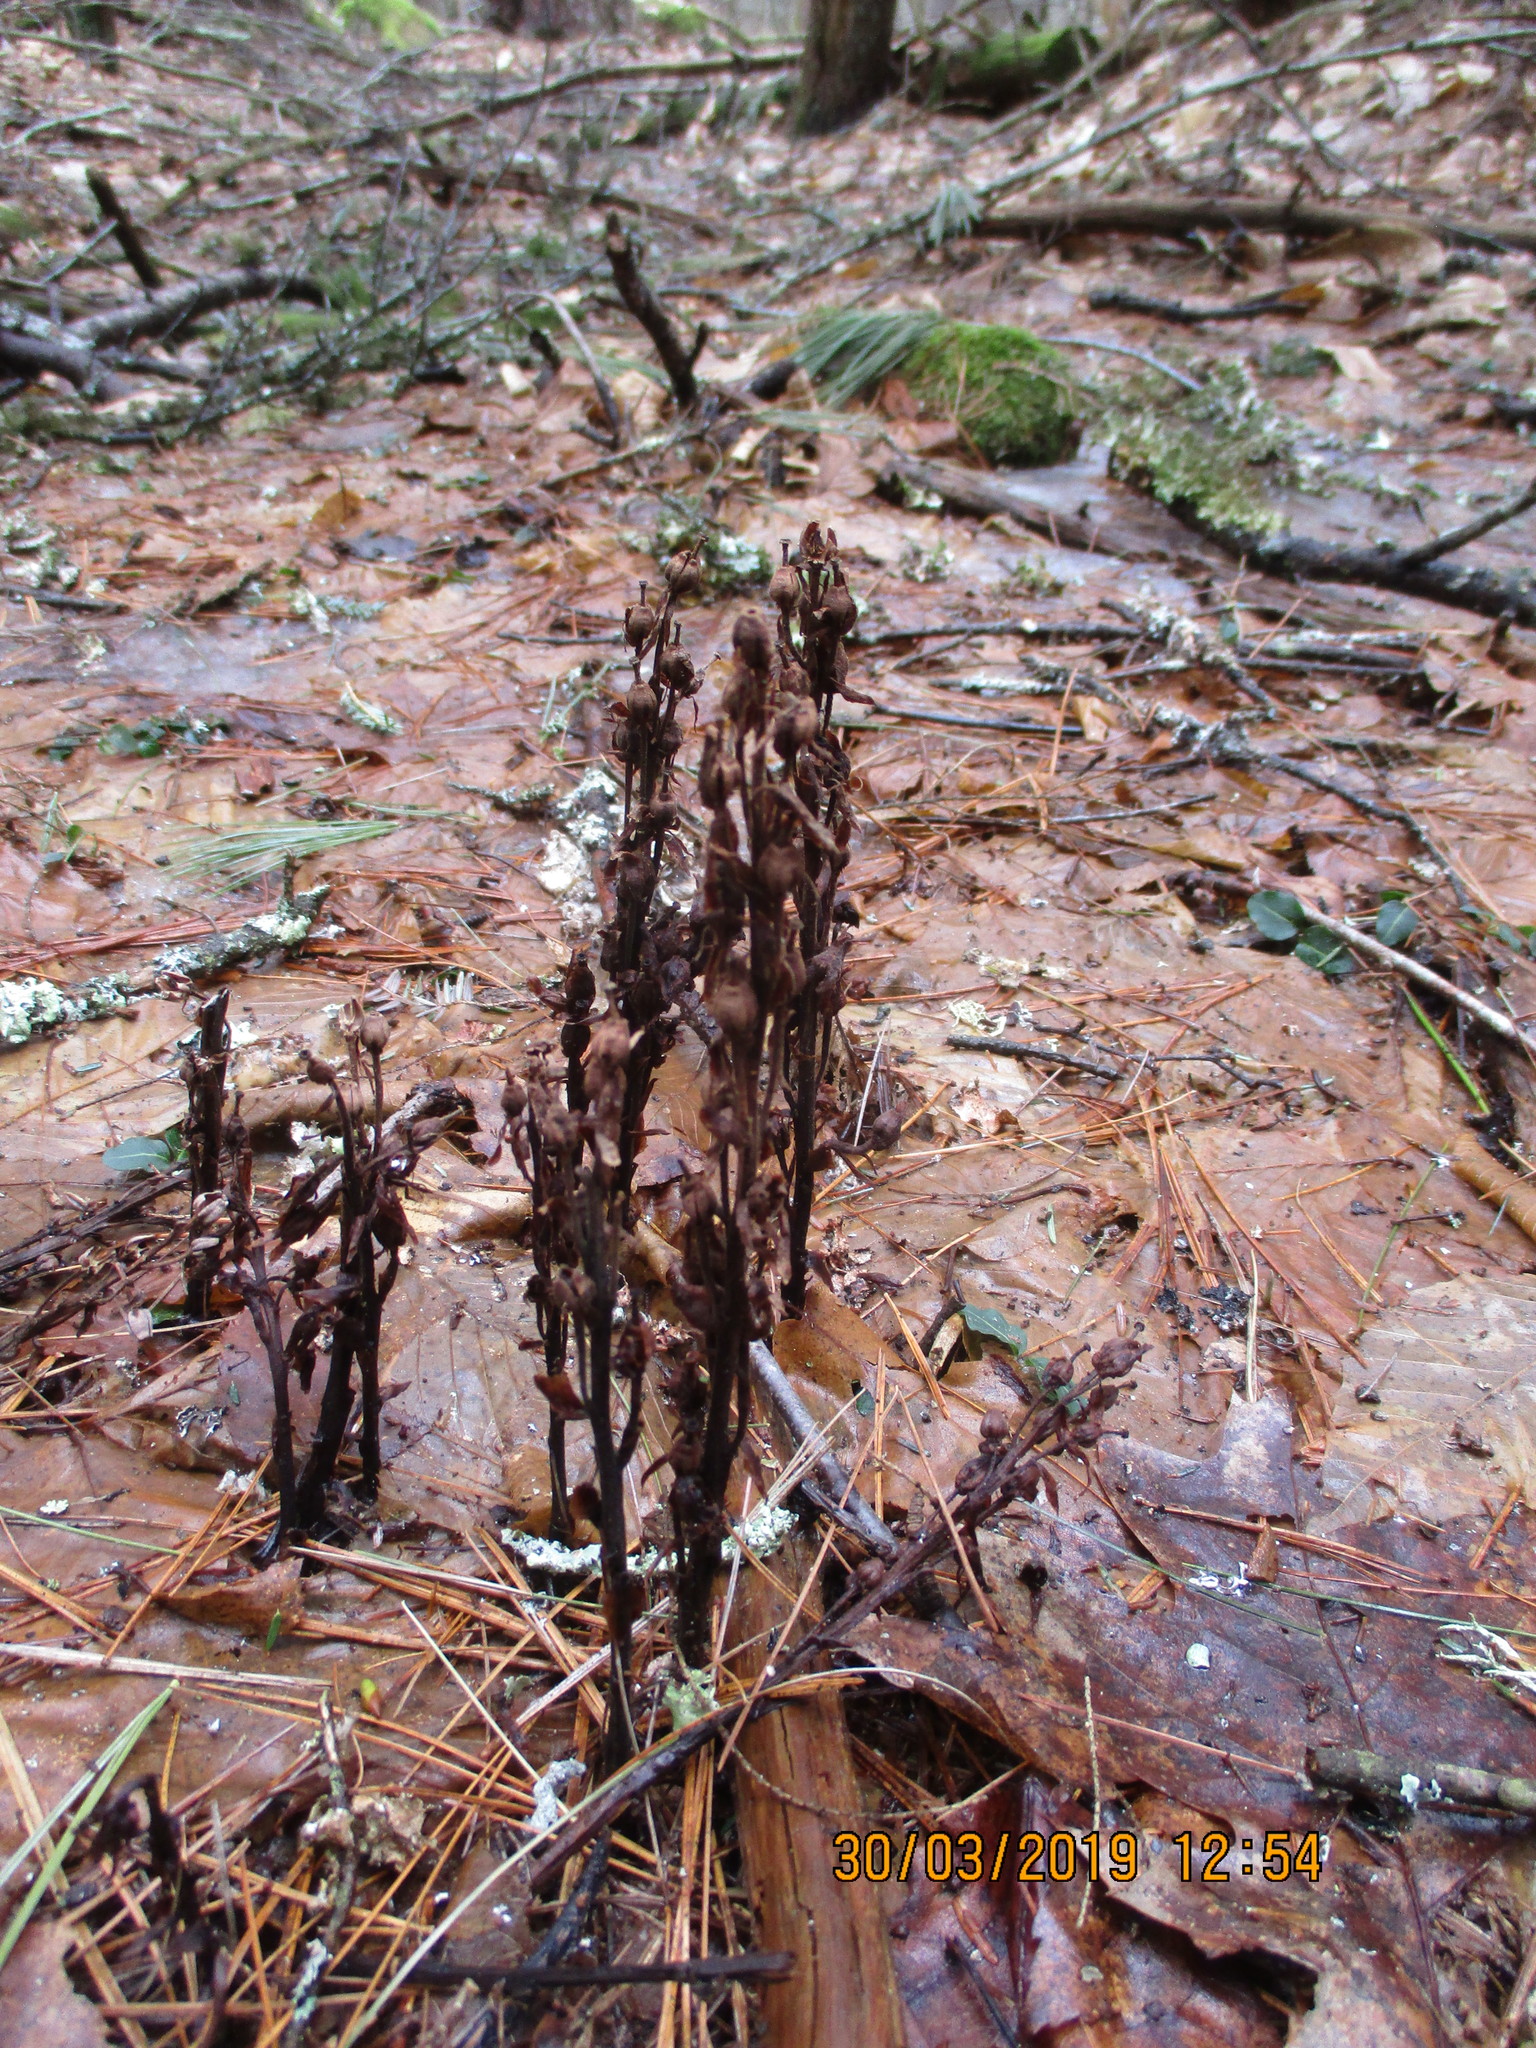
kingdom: Plantae
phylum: Tracheophyta
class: Magnoliopsida
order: Ericales
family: Ericaceae
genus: Hypopitys
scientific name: Hypopitys monotropa
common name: Yellow bird's-nest
